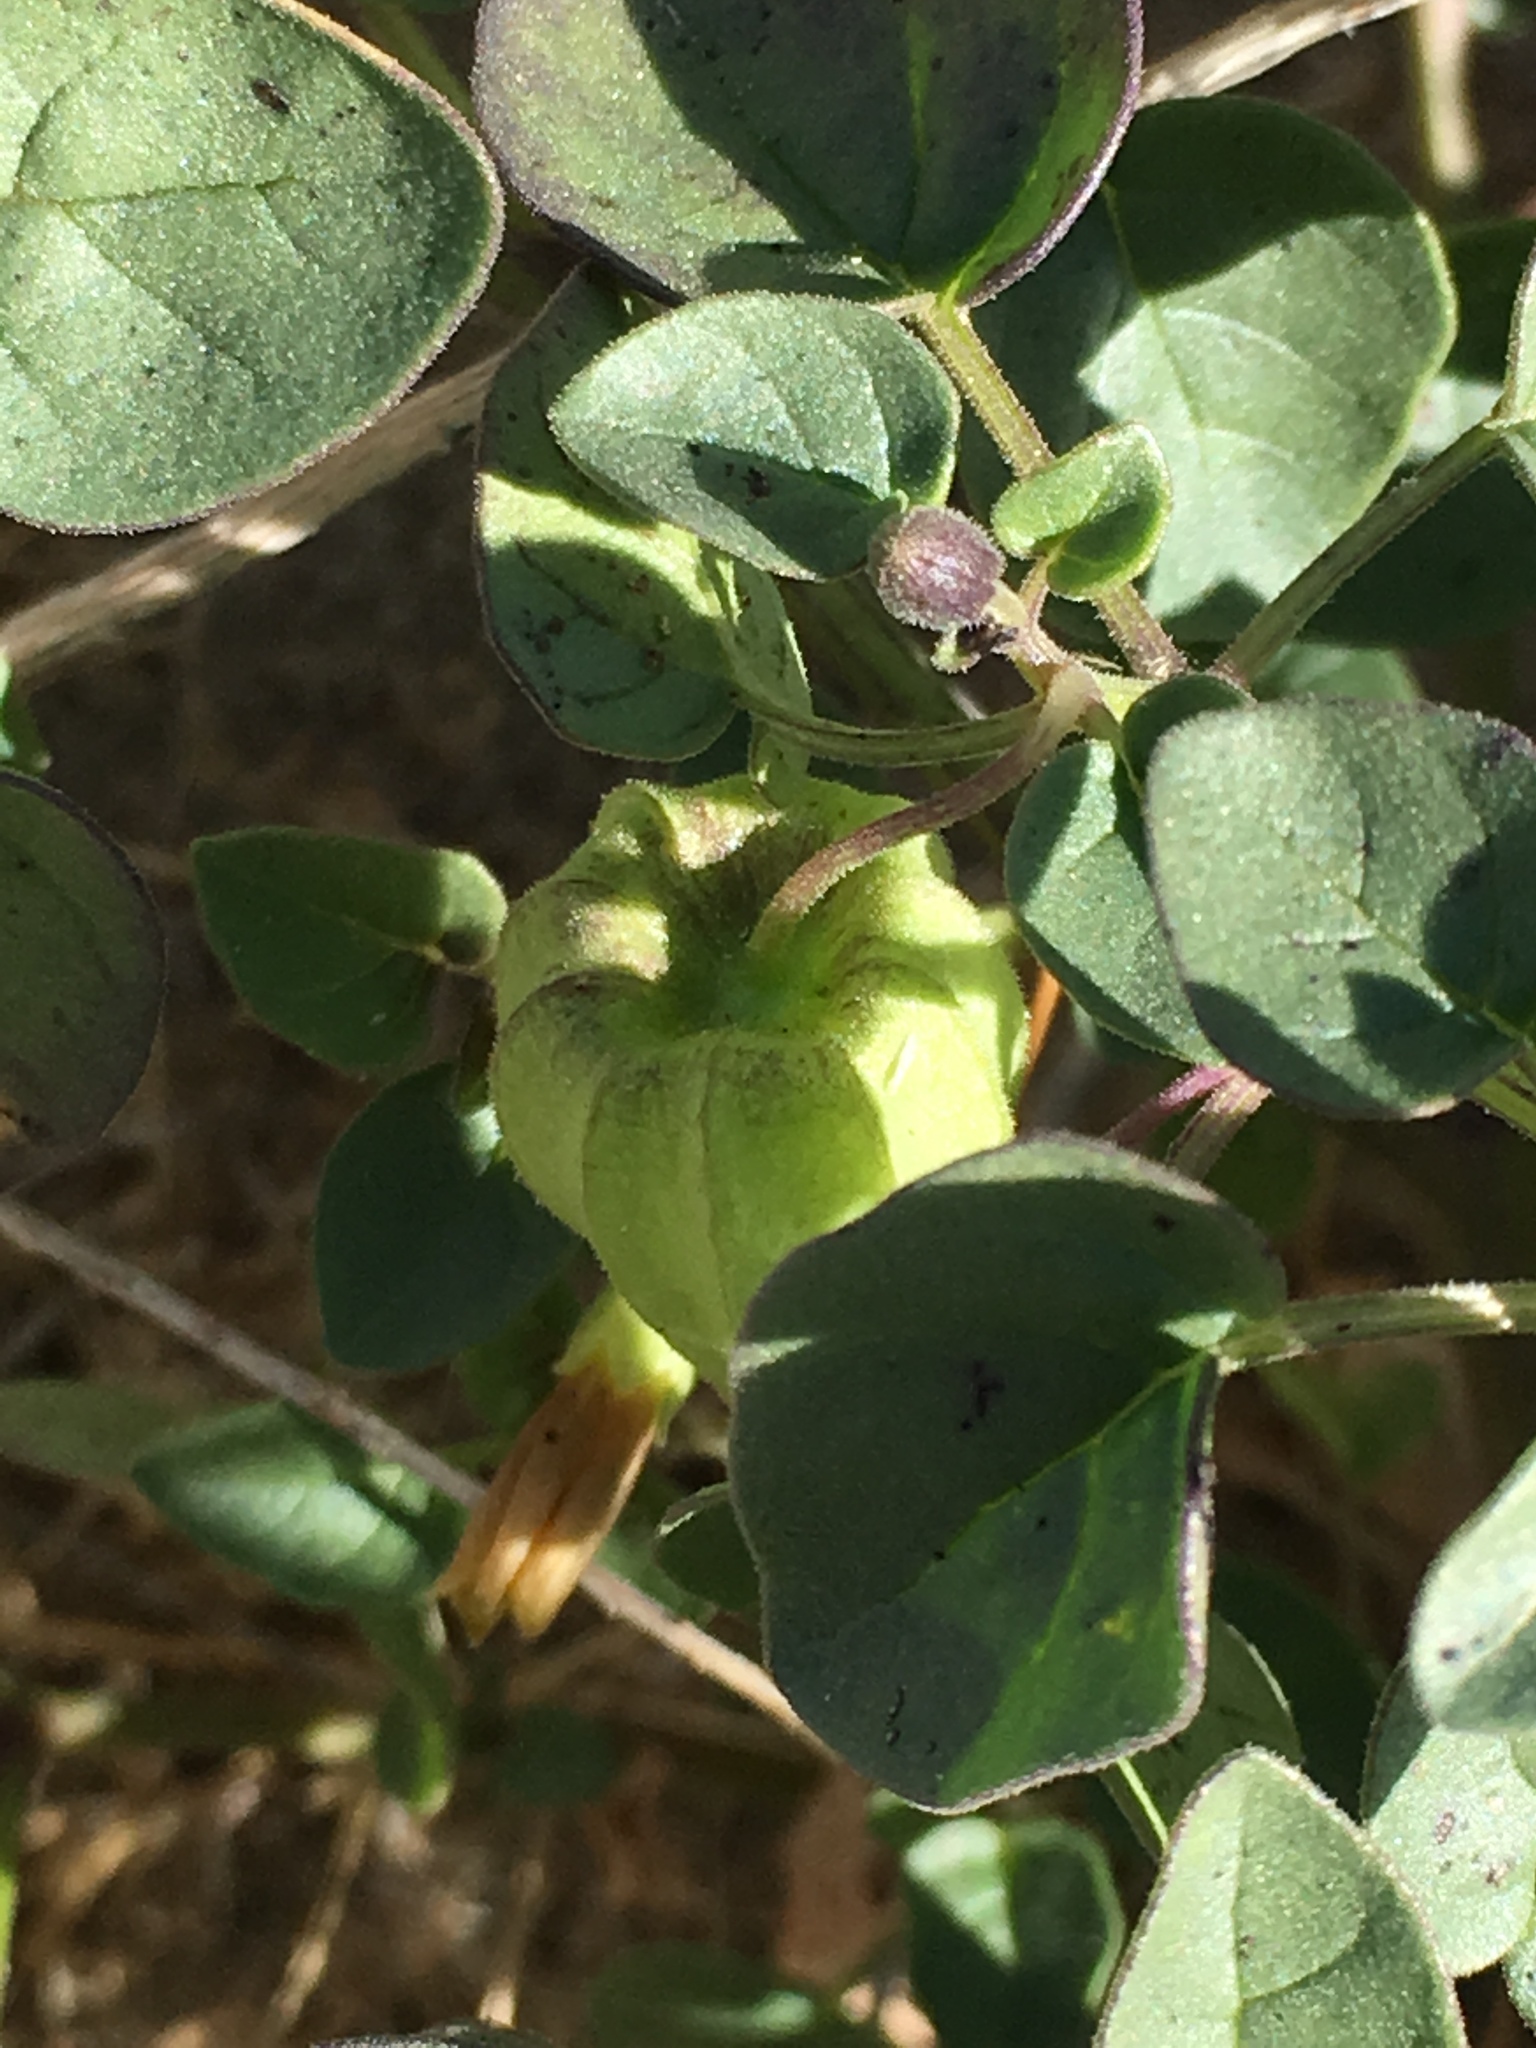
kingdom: Plantae
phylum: Tracheophyta
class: Magnoliopsida
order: Solanales
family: Solanaceae
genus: Physalis
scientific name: Physalis crassifolia
